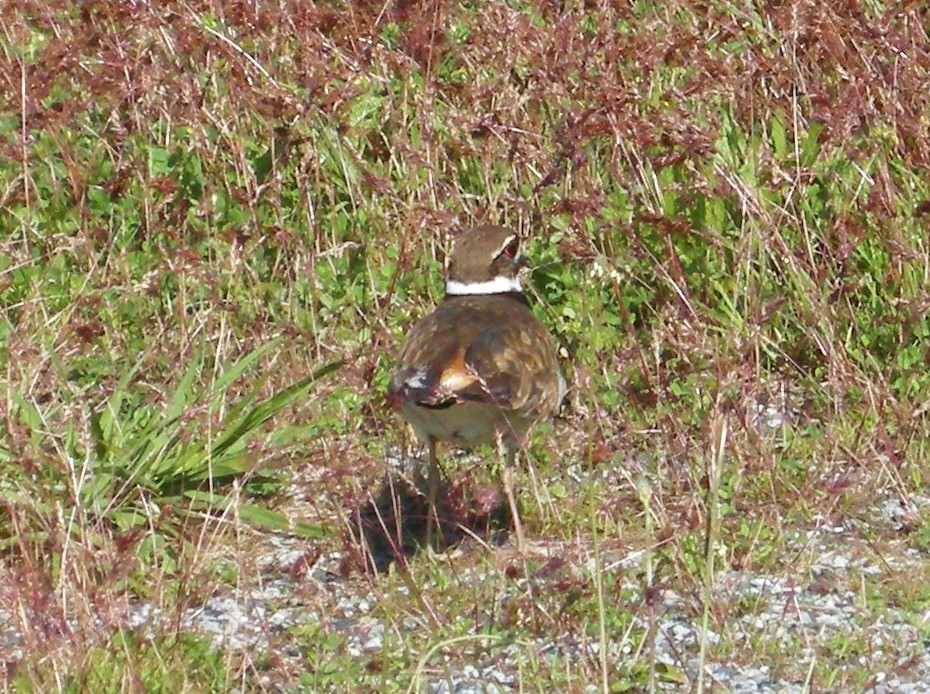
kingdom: Animalia
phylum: Chordata
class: Aves
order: Charadriiformes
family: Charadriidae
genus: Charadrius
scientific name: Charadrius vociferus
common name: Killdeer
